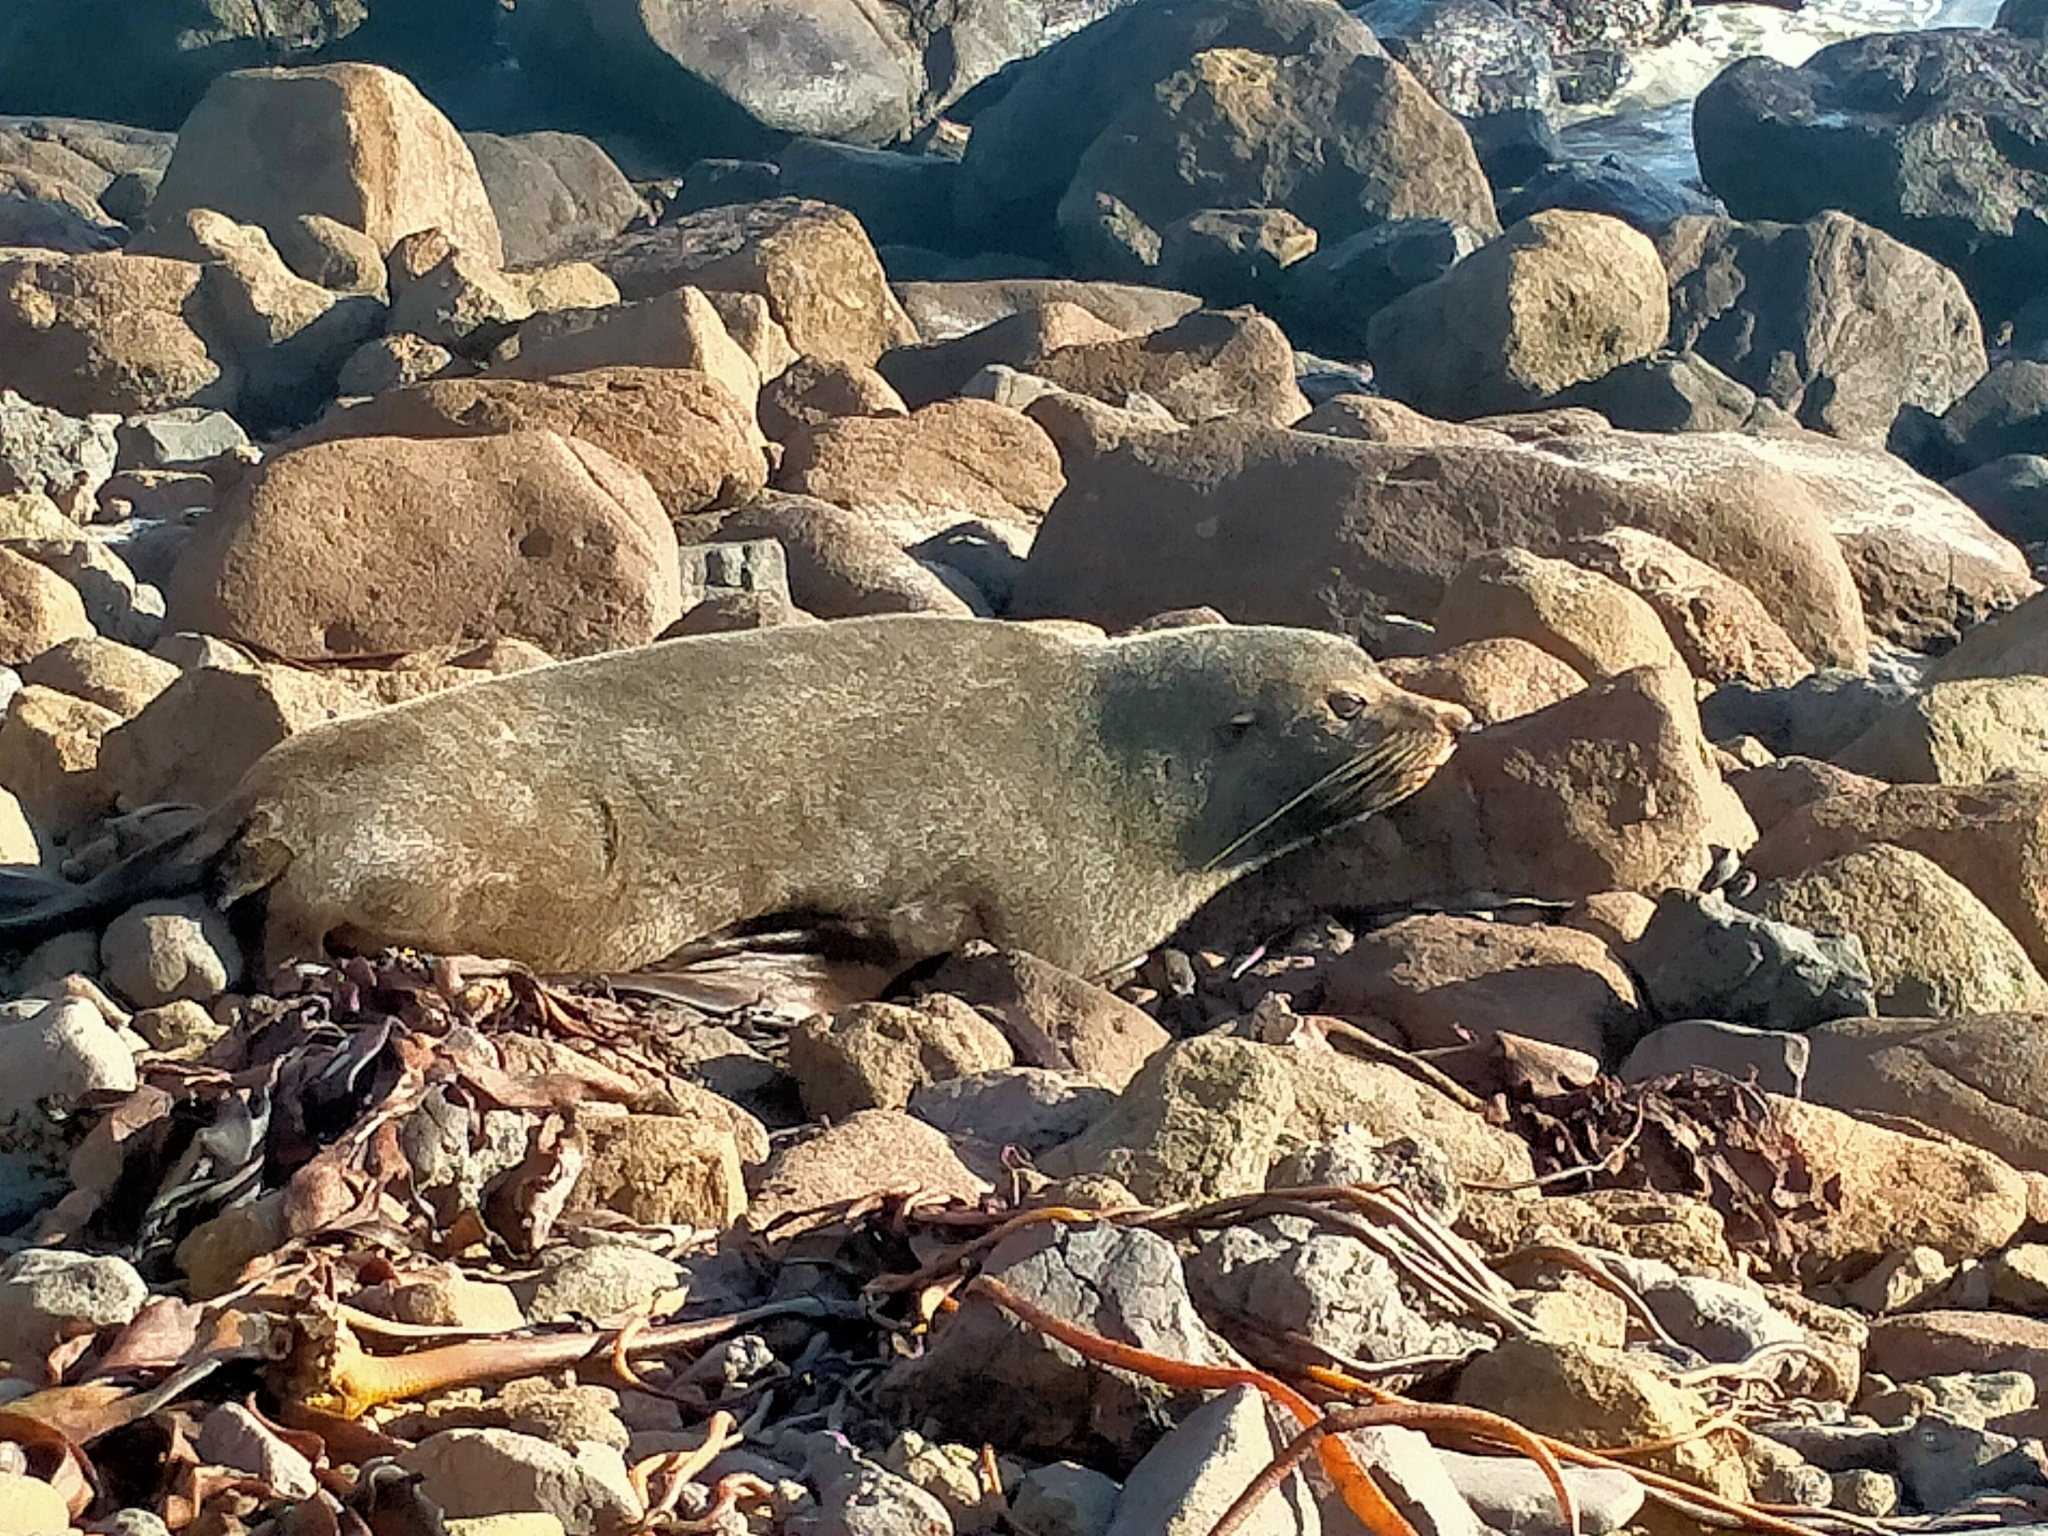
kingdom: Animalia
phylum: Chordata
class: Mammalia
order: Carnivora
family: Otariidae
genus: Arctocephalus
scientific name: Arctocephalus forsteri
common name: New zealand fur seal
